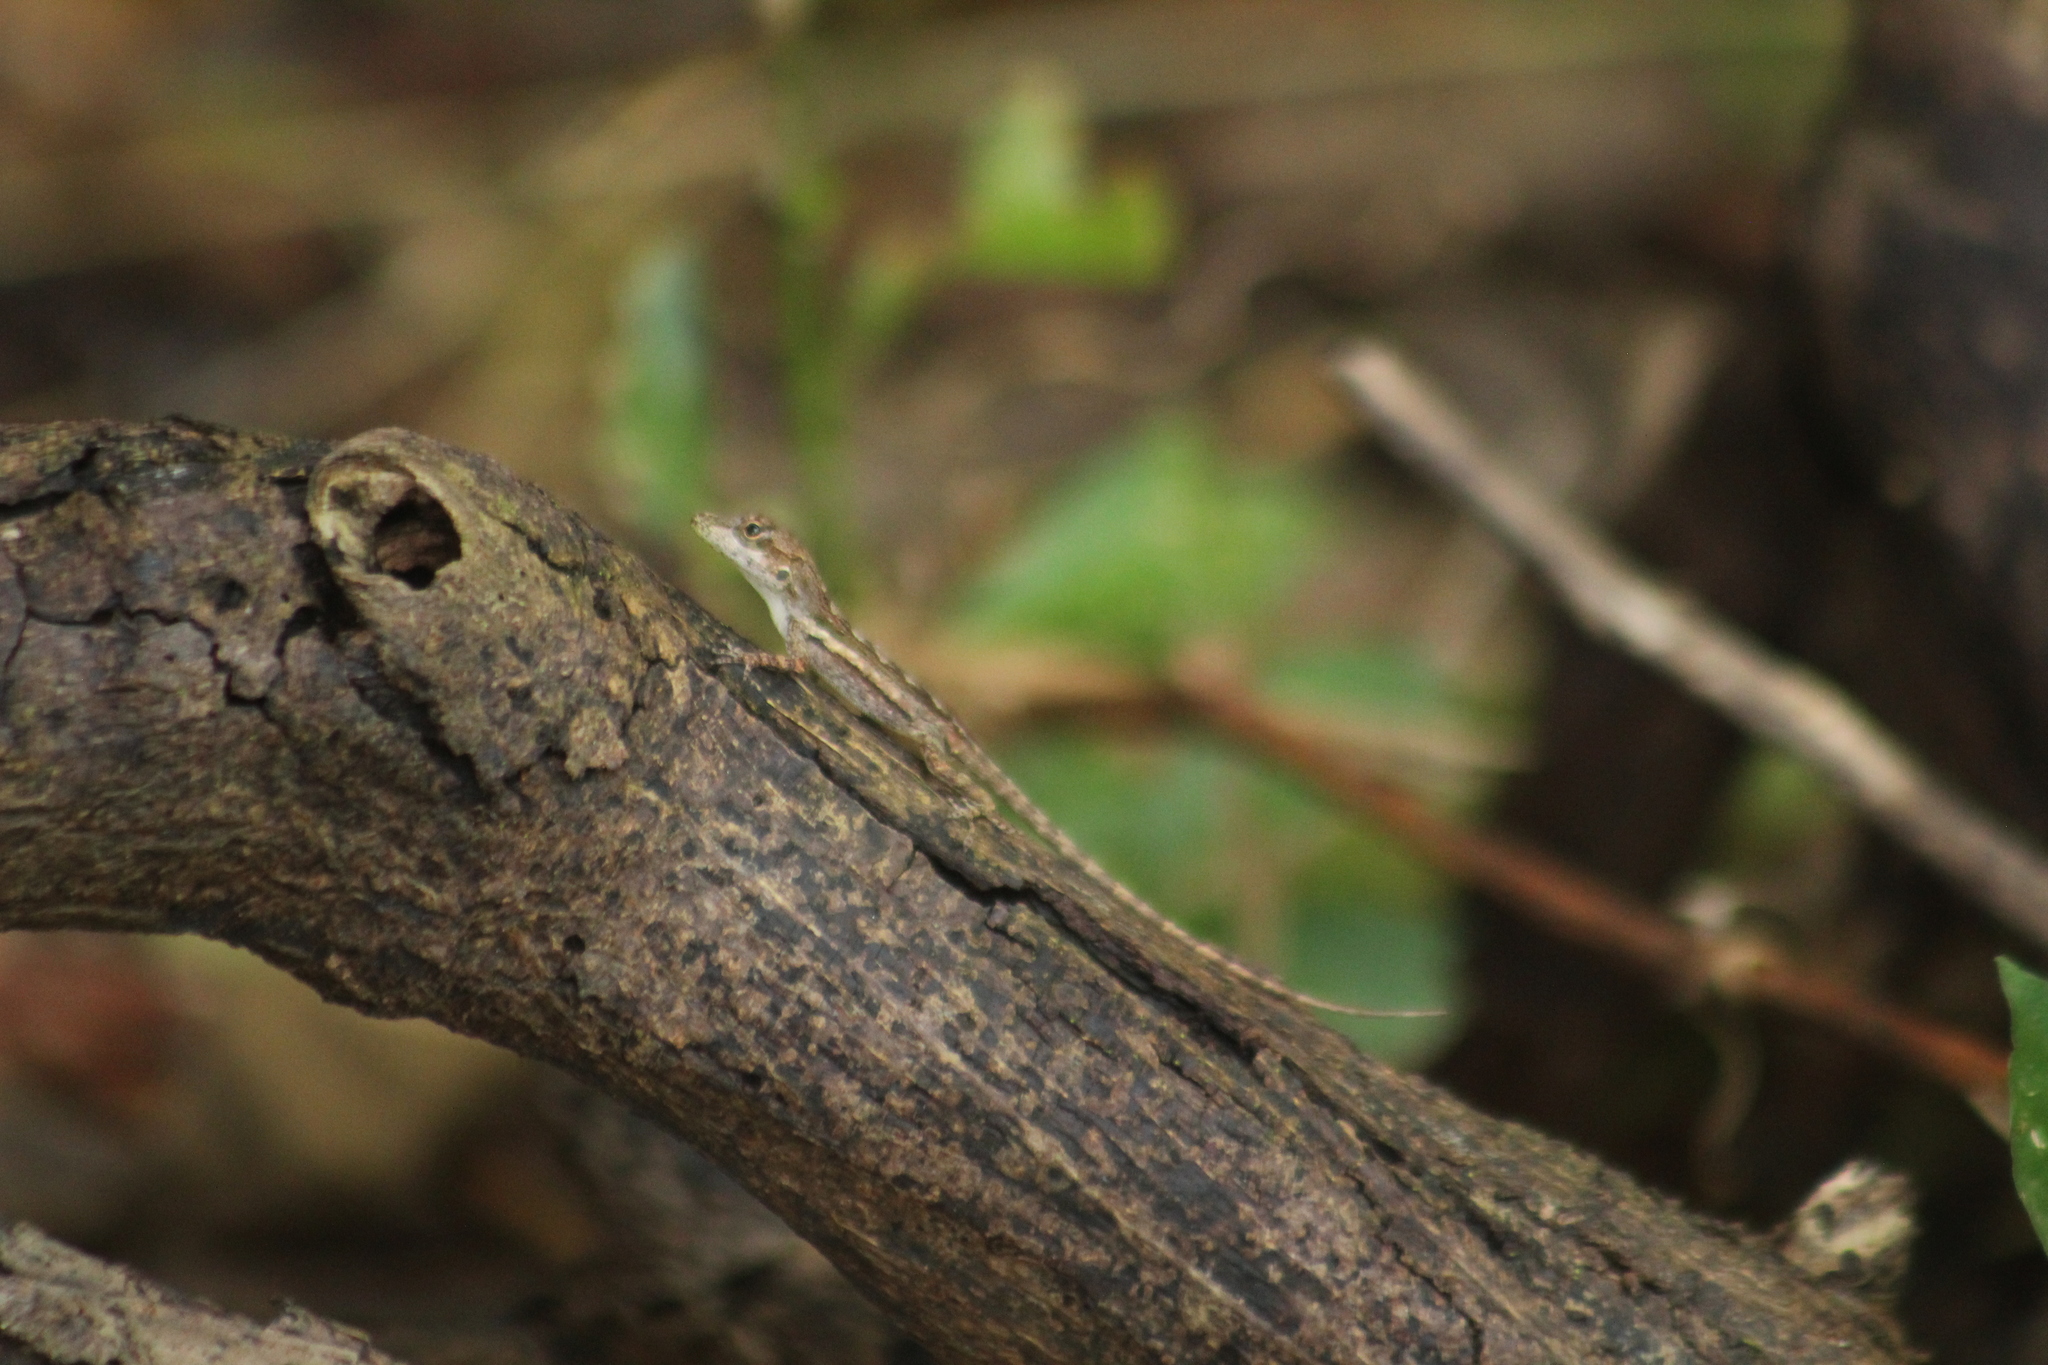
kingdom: Animalia
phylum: Chordata
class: Squamata
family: Dactyloidae
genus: Anolis
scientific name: Anolis gingivinus
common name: Anguilla anole
